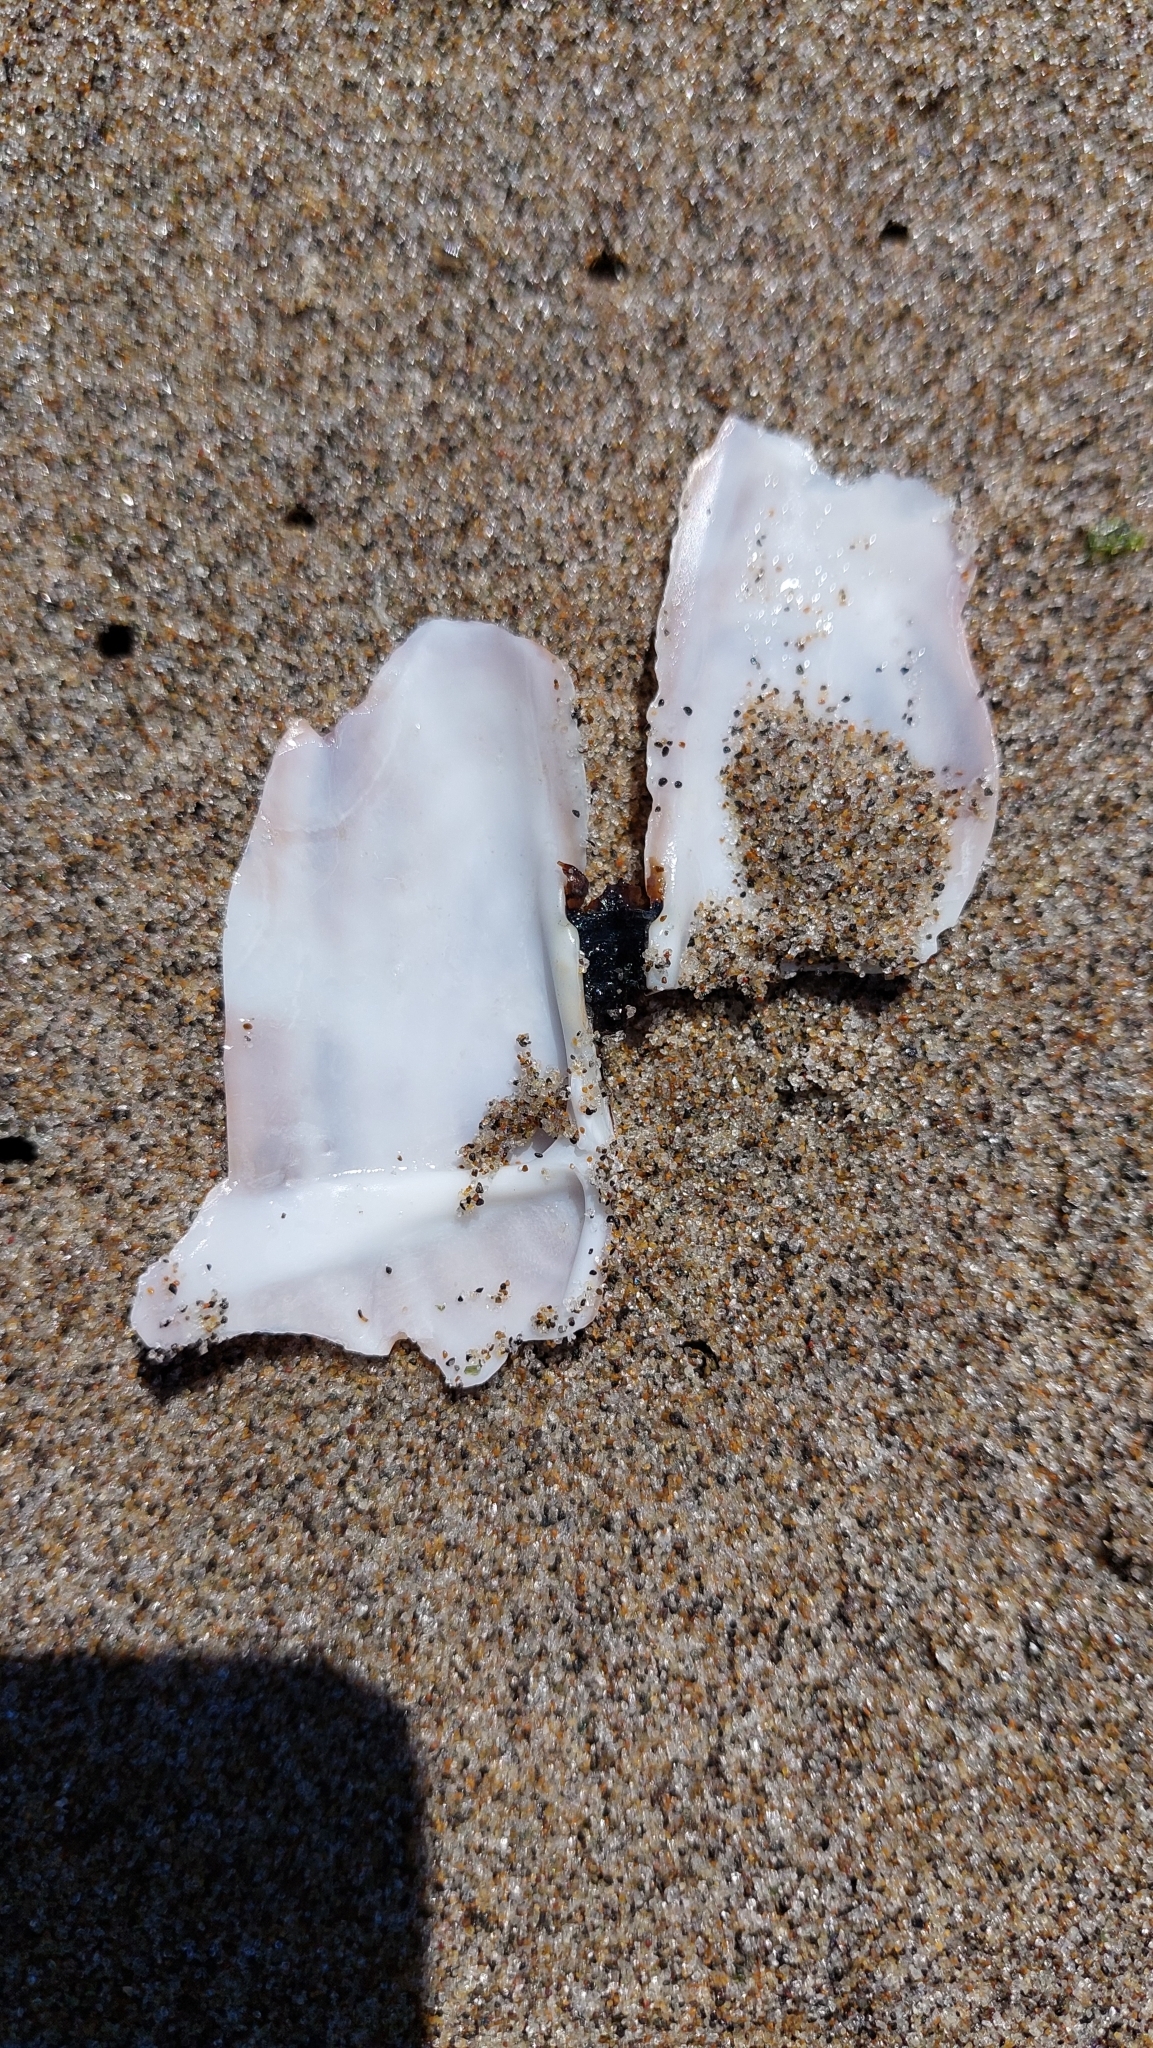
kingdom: Animalia
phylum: Mollusca
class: Bivalvia
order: Adapedonta
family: Pharidae
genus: Siliqua
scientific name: Siliqua patula
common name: Pacific razor clam
